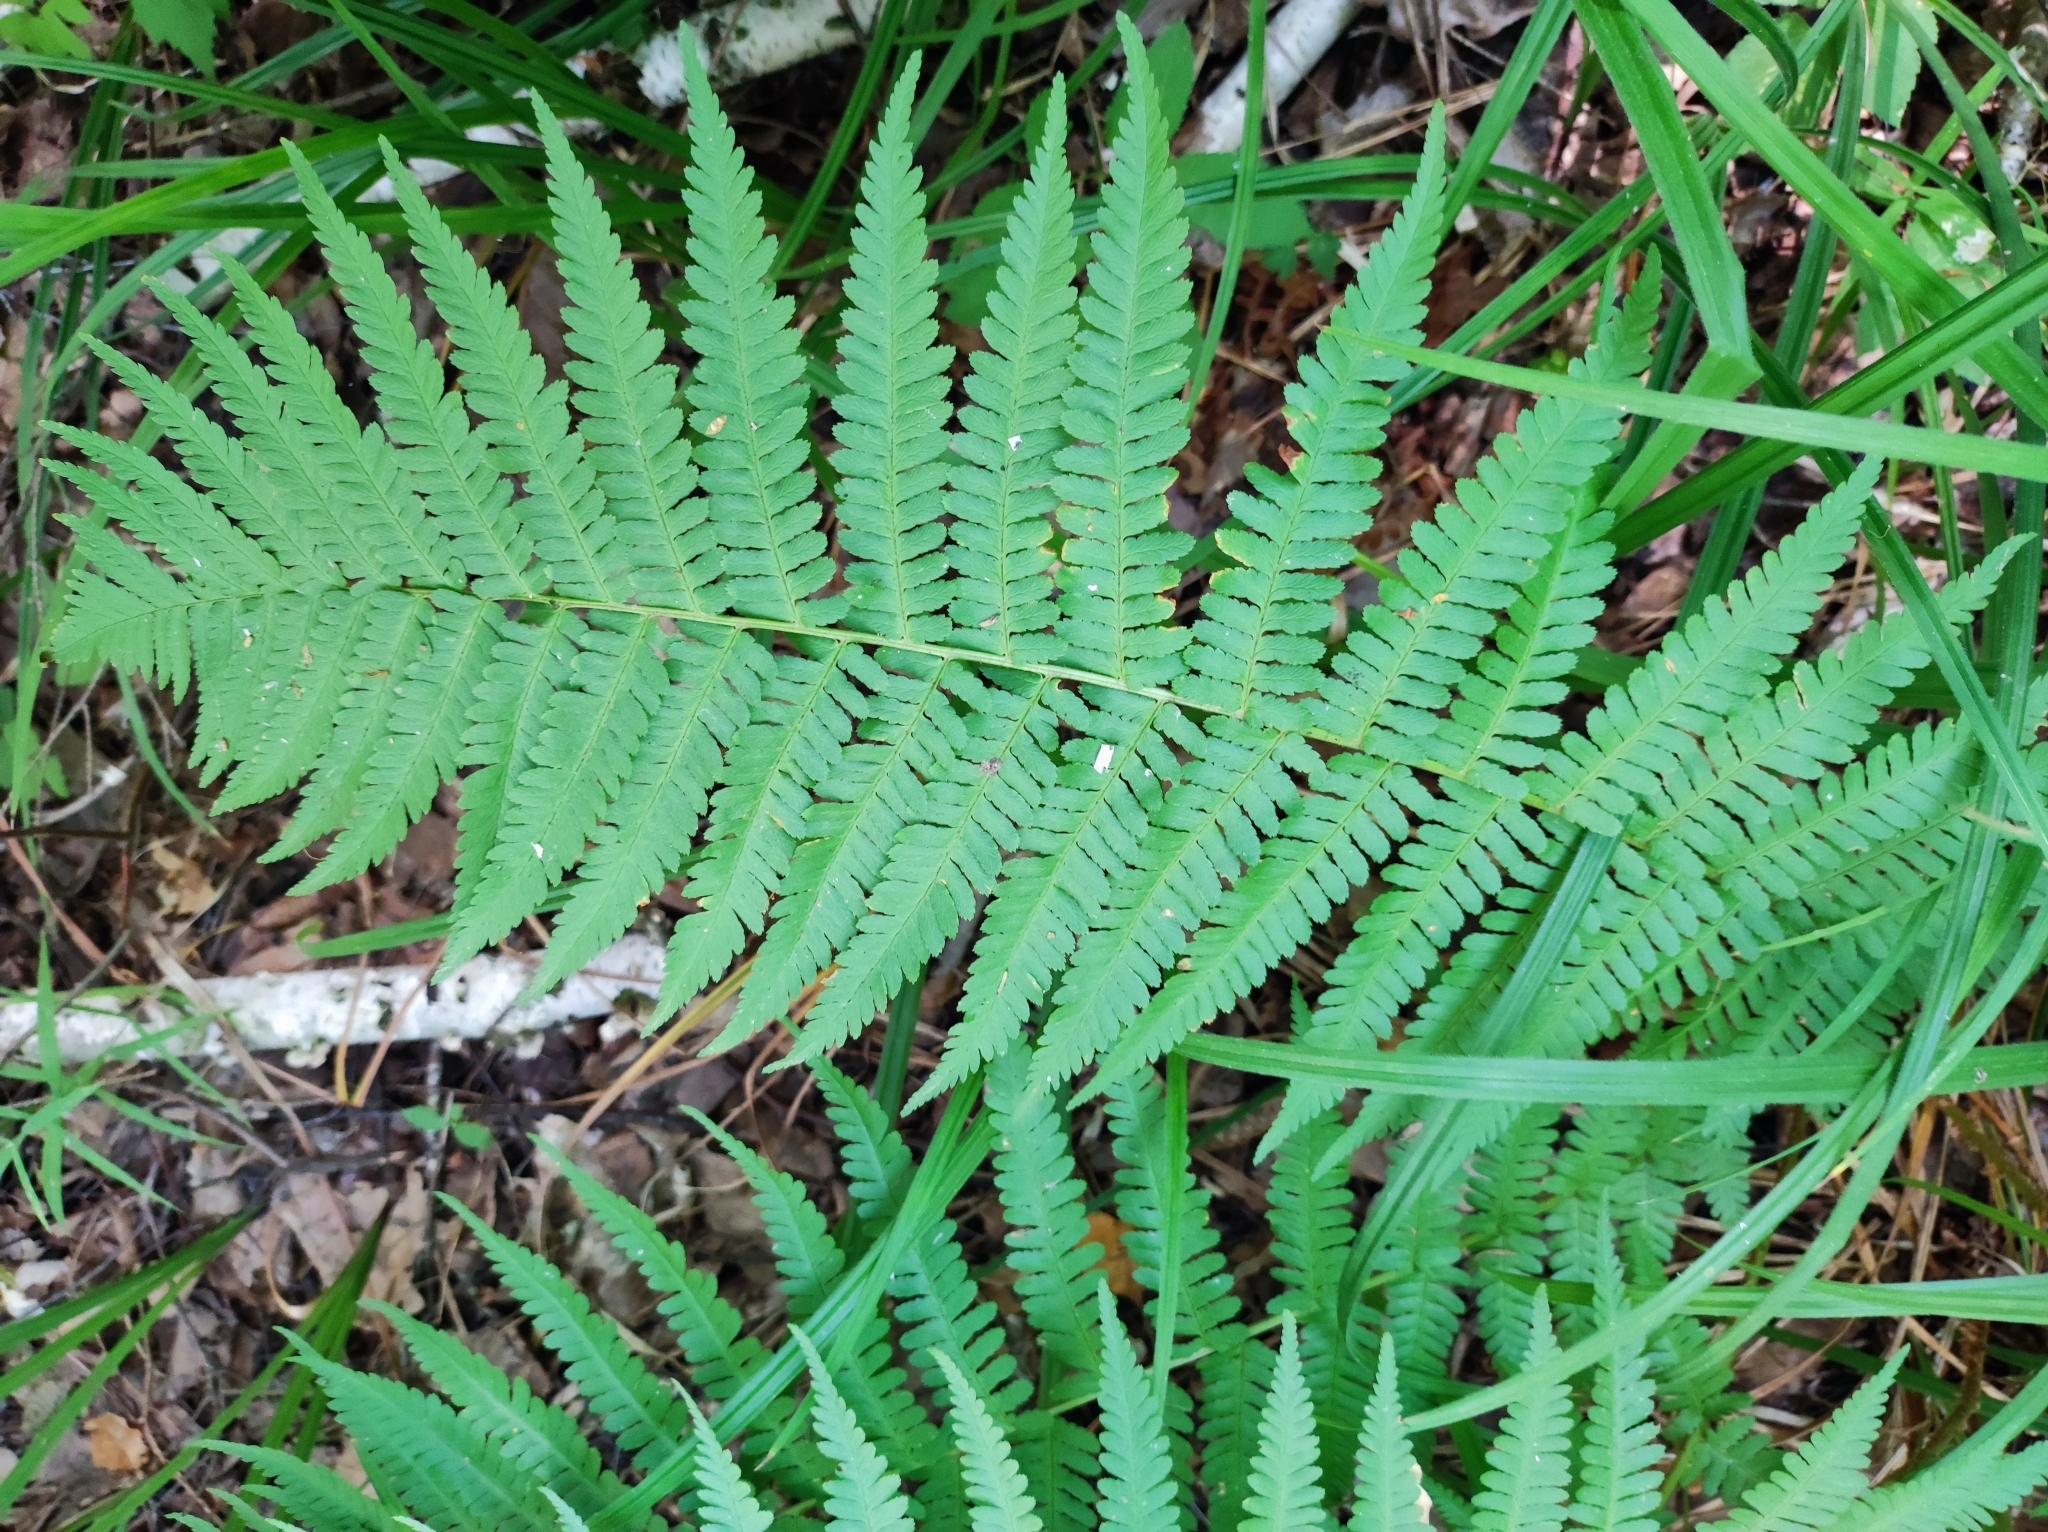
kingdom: Plantae
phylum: Tracheophyta
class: Polypodiopsida
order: Polypodiales
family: Dryopteridaceae
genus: Dryopteris
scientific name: Dryopteris filix-mas
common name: Male fern
